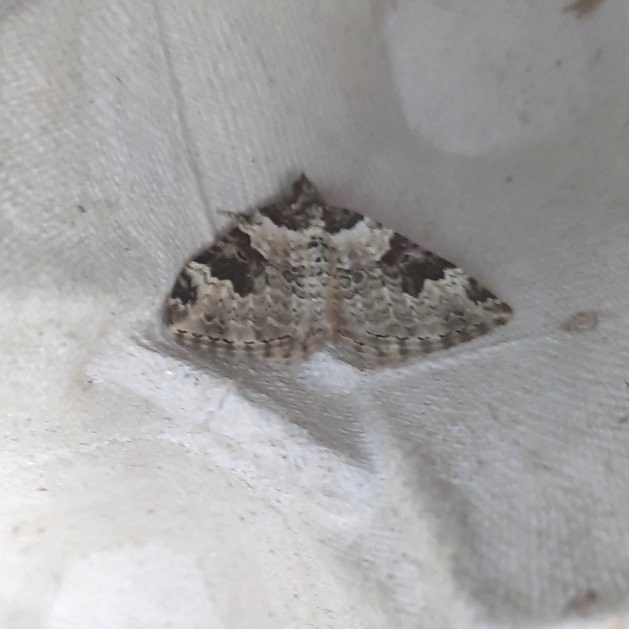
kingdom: Animalia
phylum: Arthropoda
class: Insecta
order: Lepidoptera
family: Geometridae
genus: Xanthorhoe
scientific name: Xanthorhoe fluctuata
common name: Garden carpet
